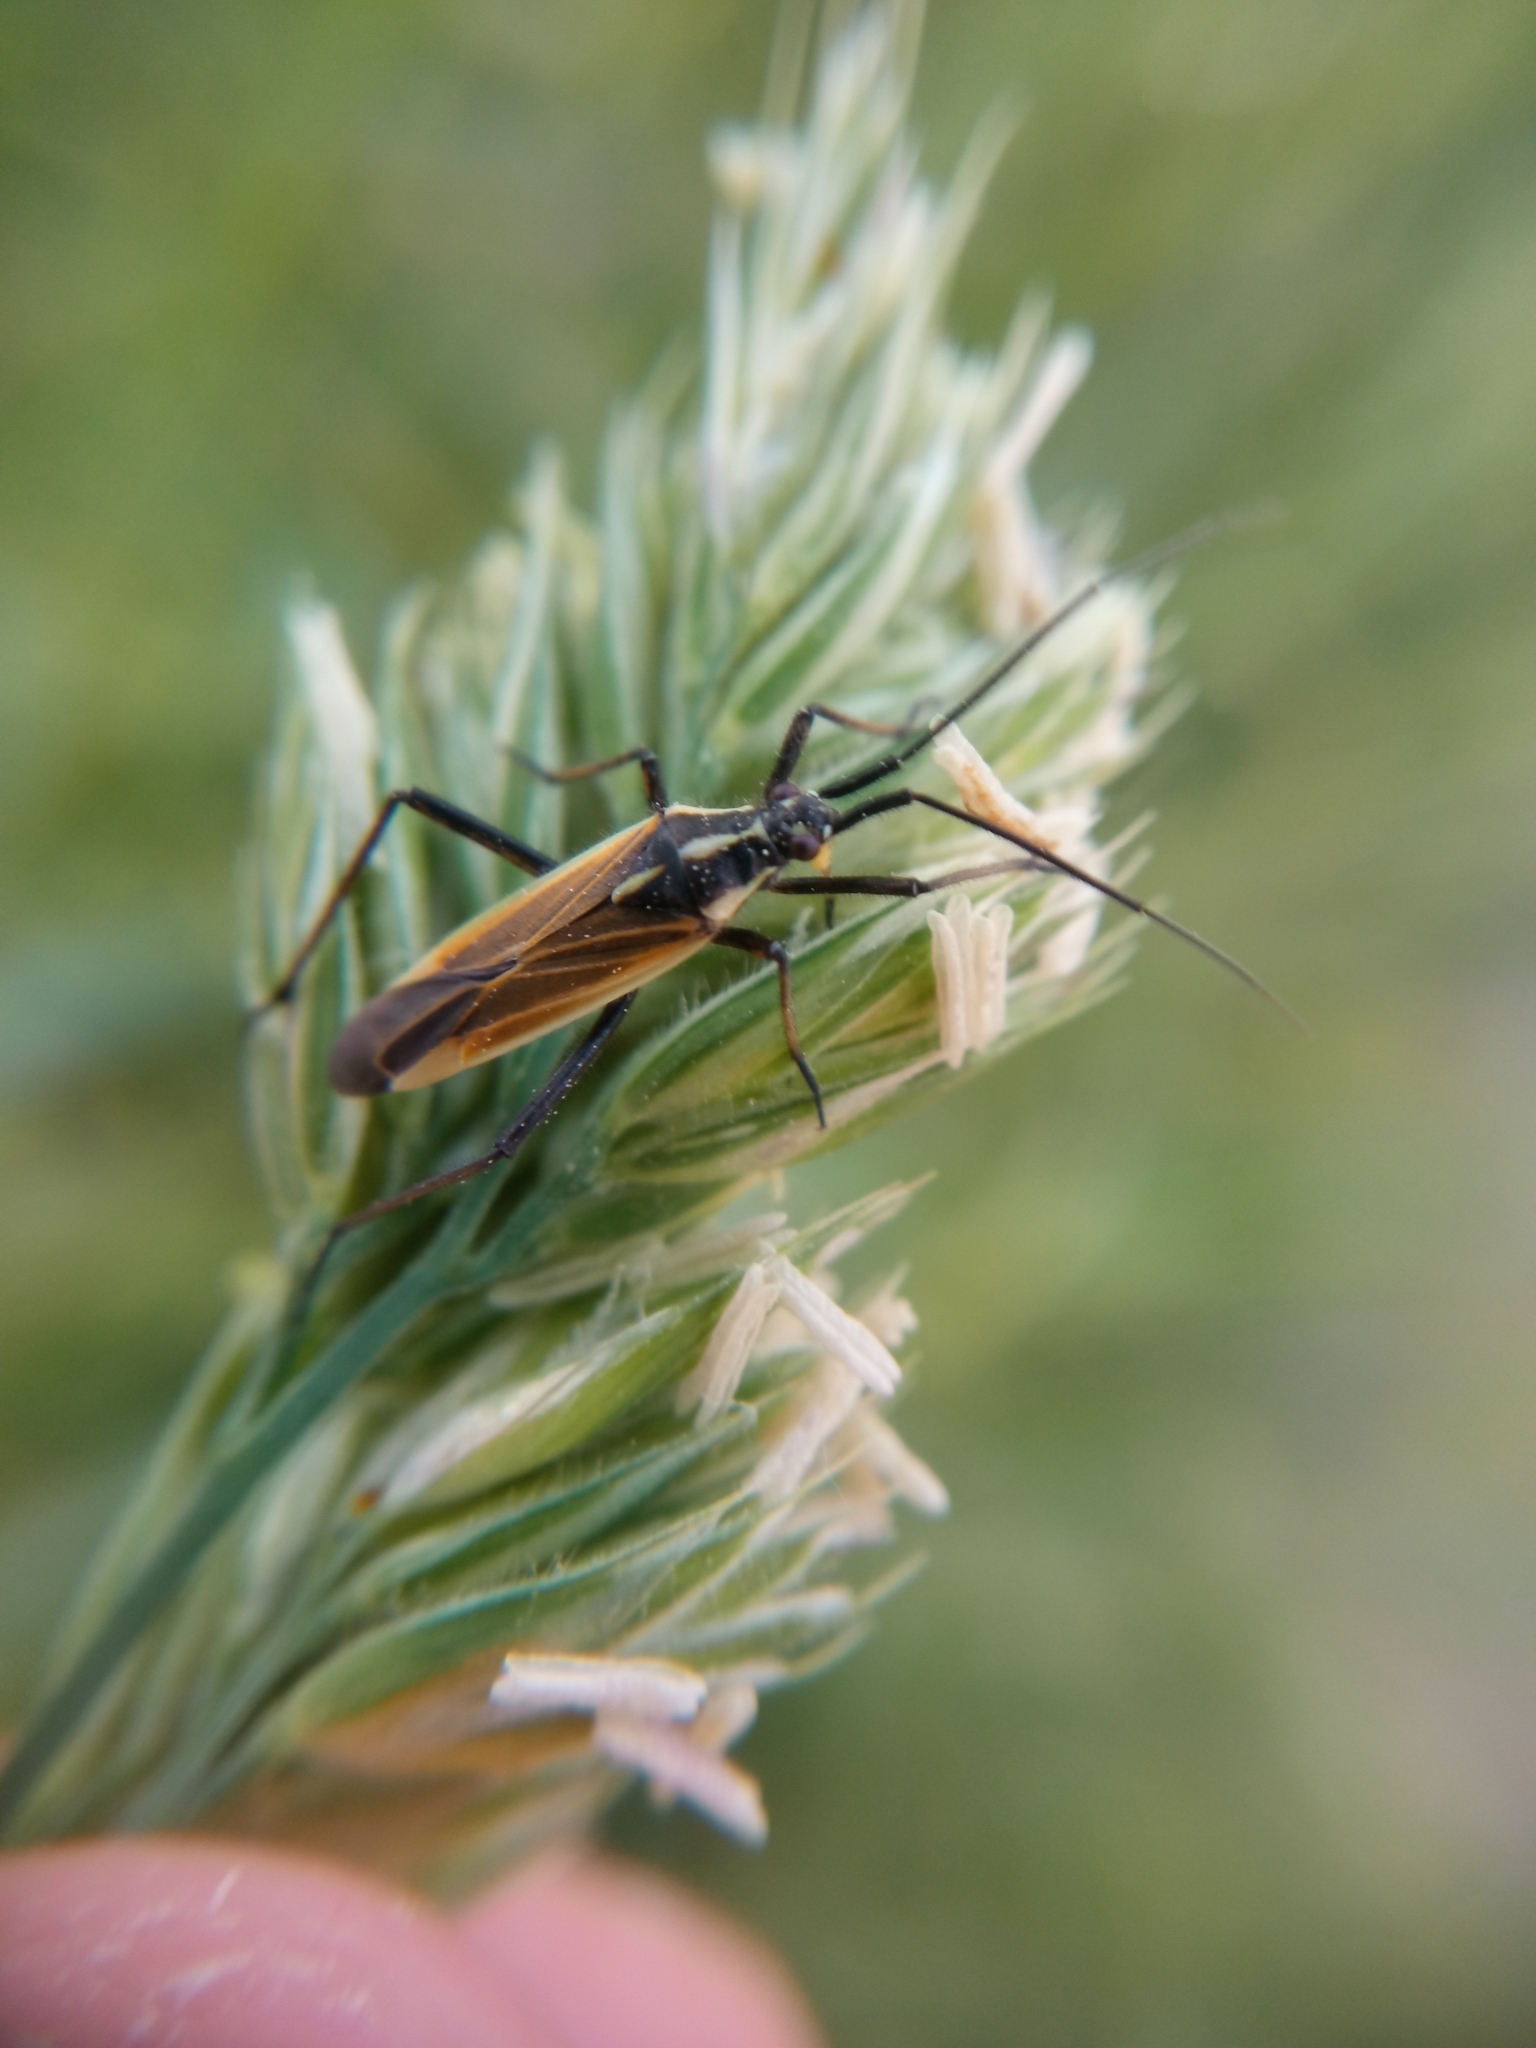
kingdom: Animalia
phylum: Arthropoda
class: Insecta
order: Hemiptera
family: Miridae
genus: Leptopterna
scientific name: Leptopterna dolabrata
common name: Meadow plant bug
